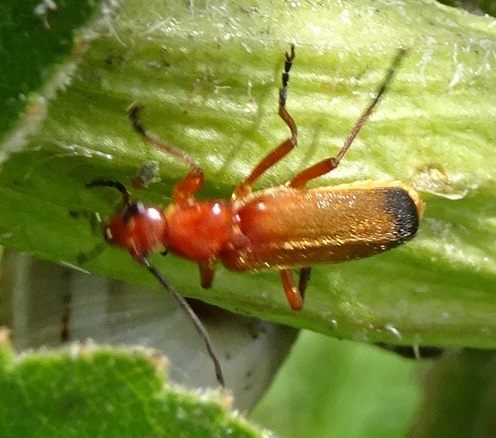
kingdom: Animalia
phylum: Arthropoda
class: Insecta
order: Coleoptera
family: Cantharidae
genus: Rhagonycha
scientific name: Rhagonycha fulva
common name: Common red soldier beetle
